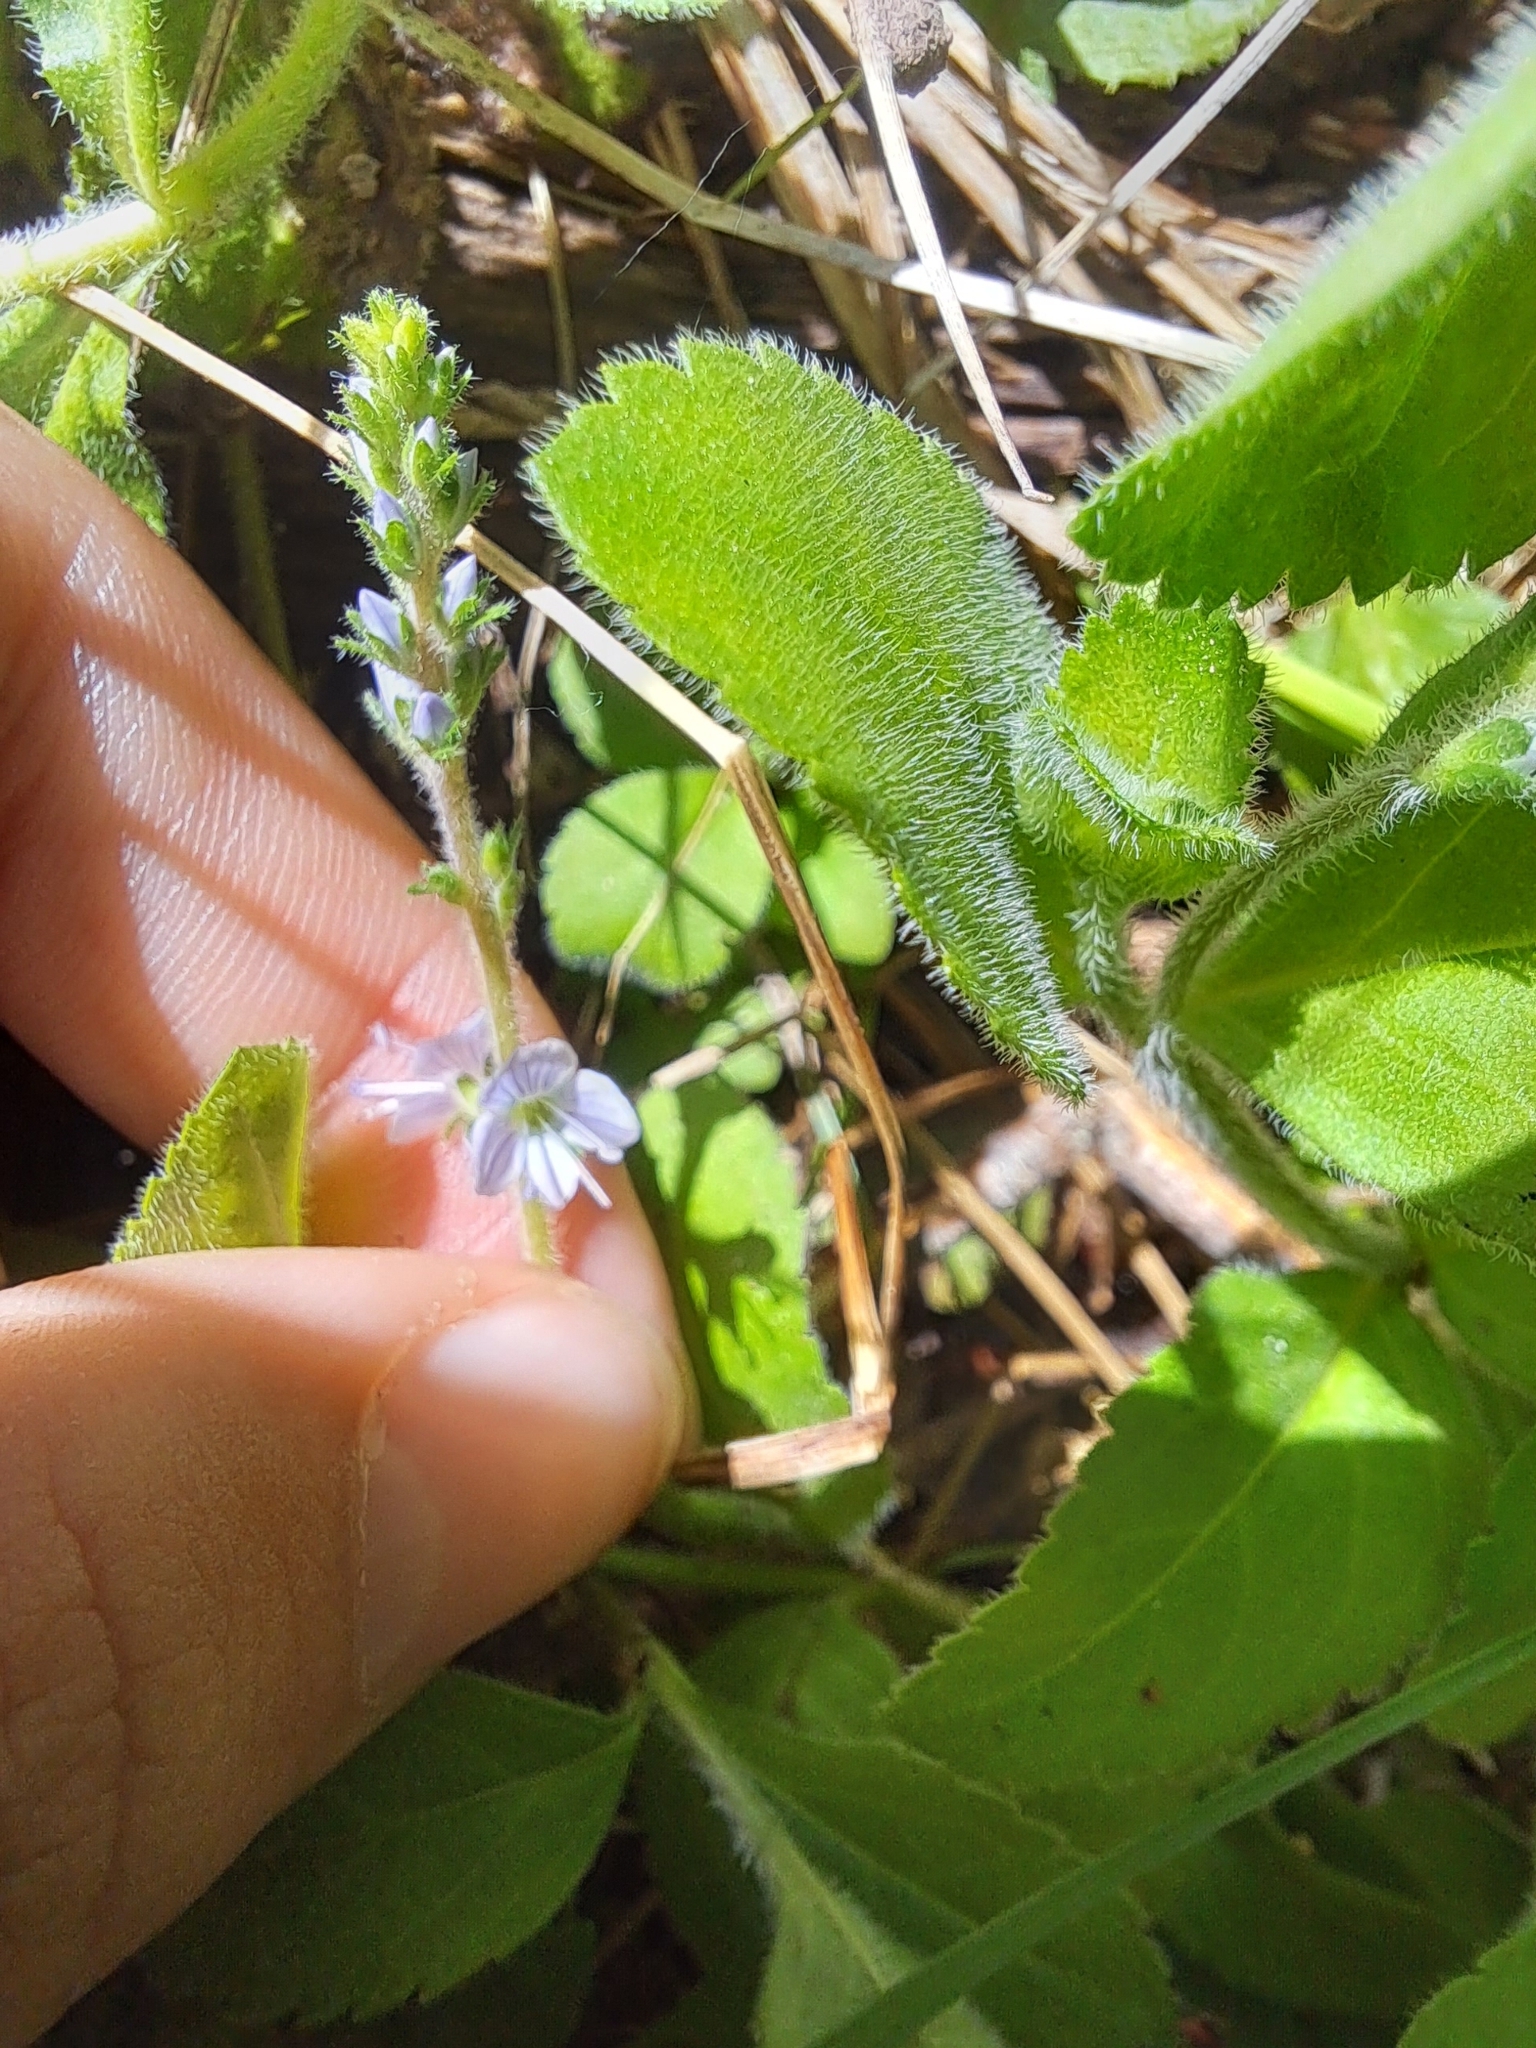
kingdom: Plantae
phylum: Tracheophyta
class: Magnoliopsida
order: Lamiales
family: Plantaginaceae
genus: Veronica
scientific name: Veronica officinalis
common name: Common speedwell
